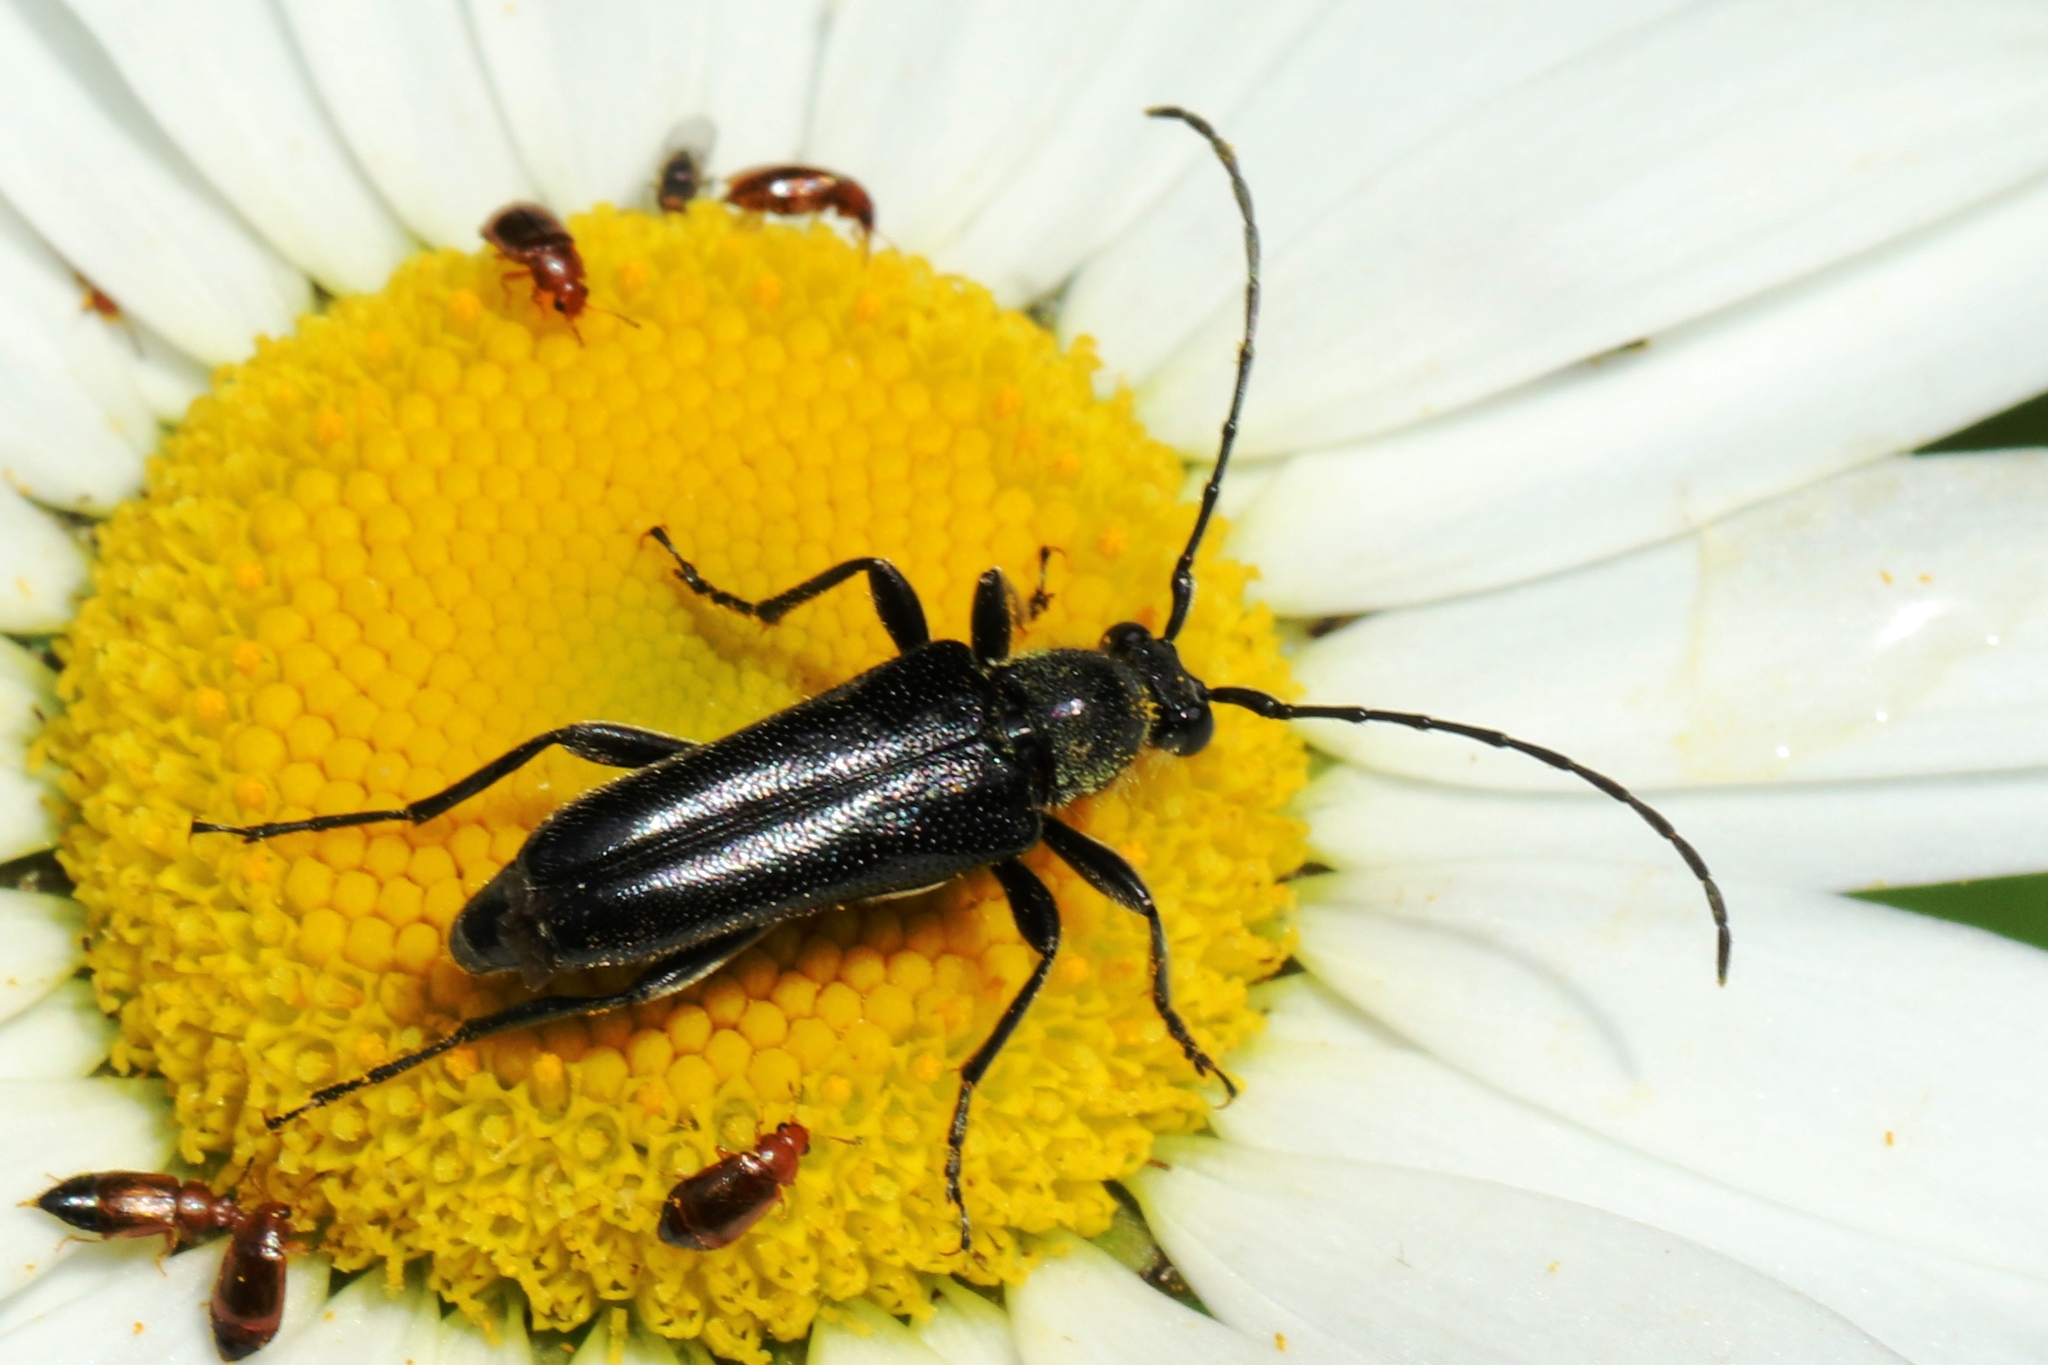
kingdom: Animalia
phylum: Arthropoda
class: Insecta
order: Coleoptera
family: Cerambycidae
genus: Anoplodera
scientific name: Anoplodera pubera
